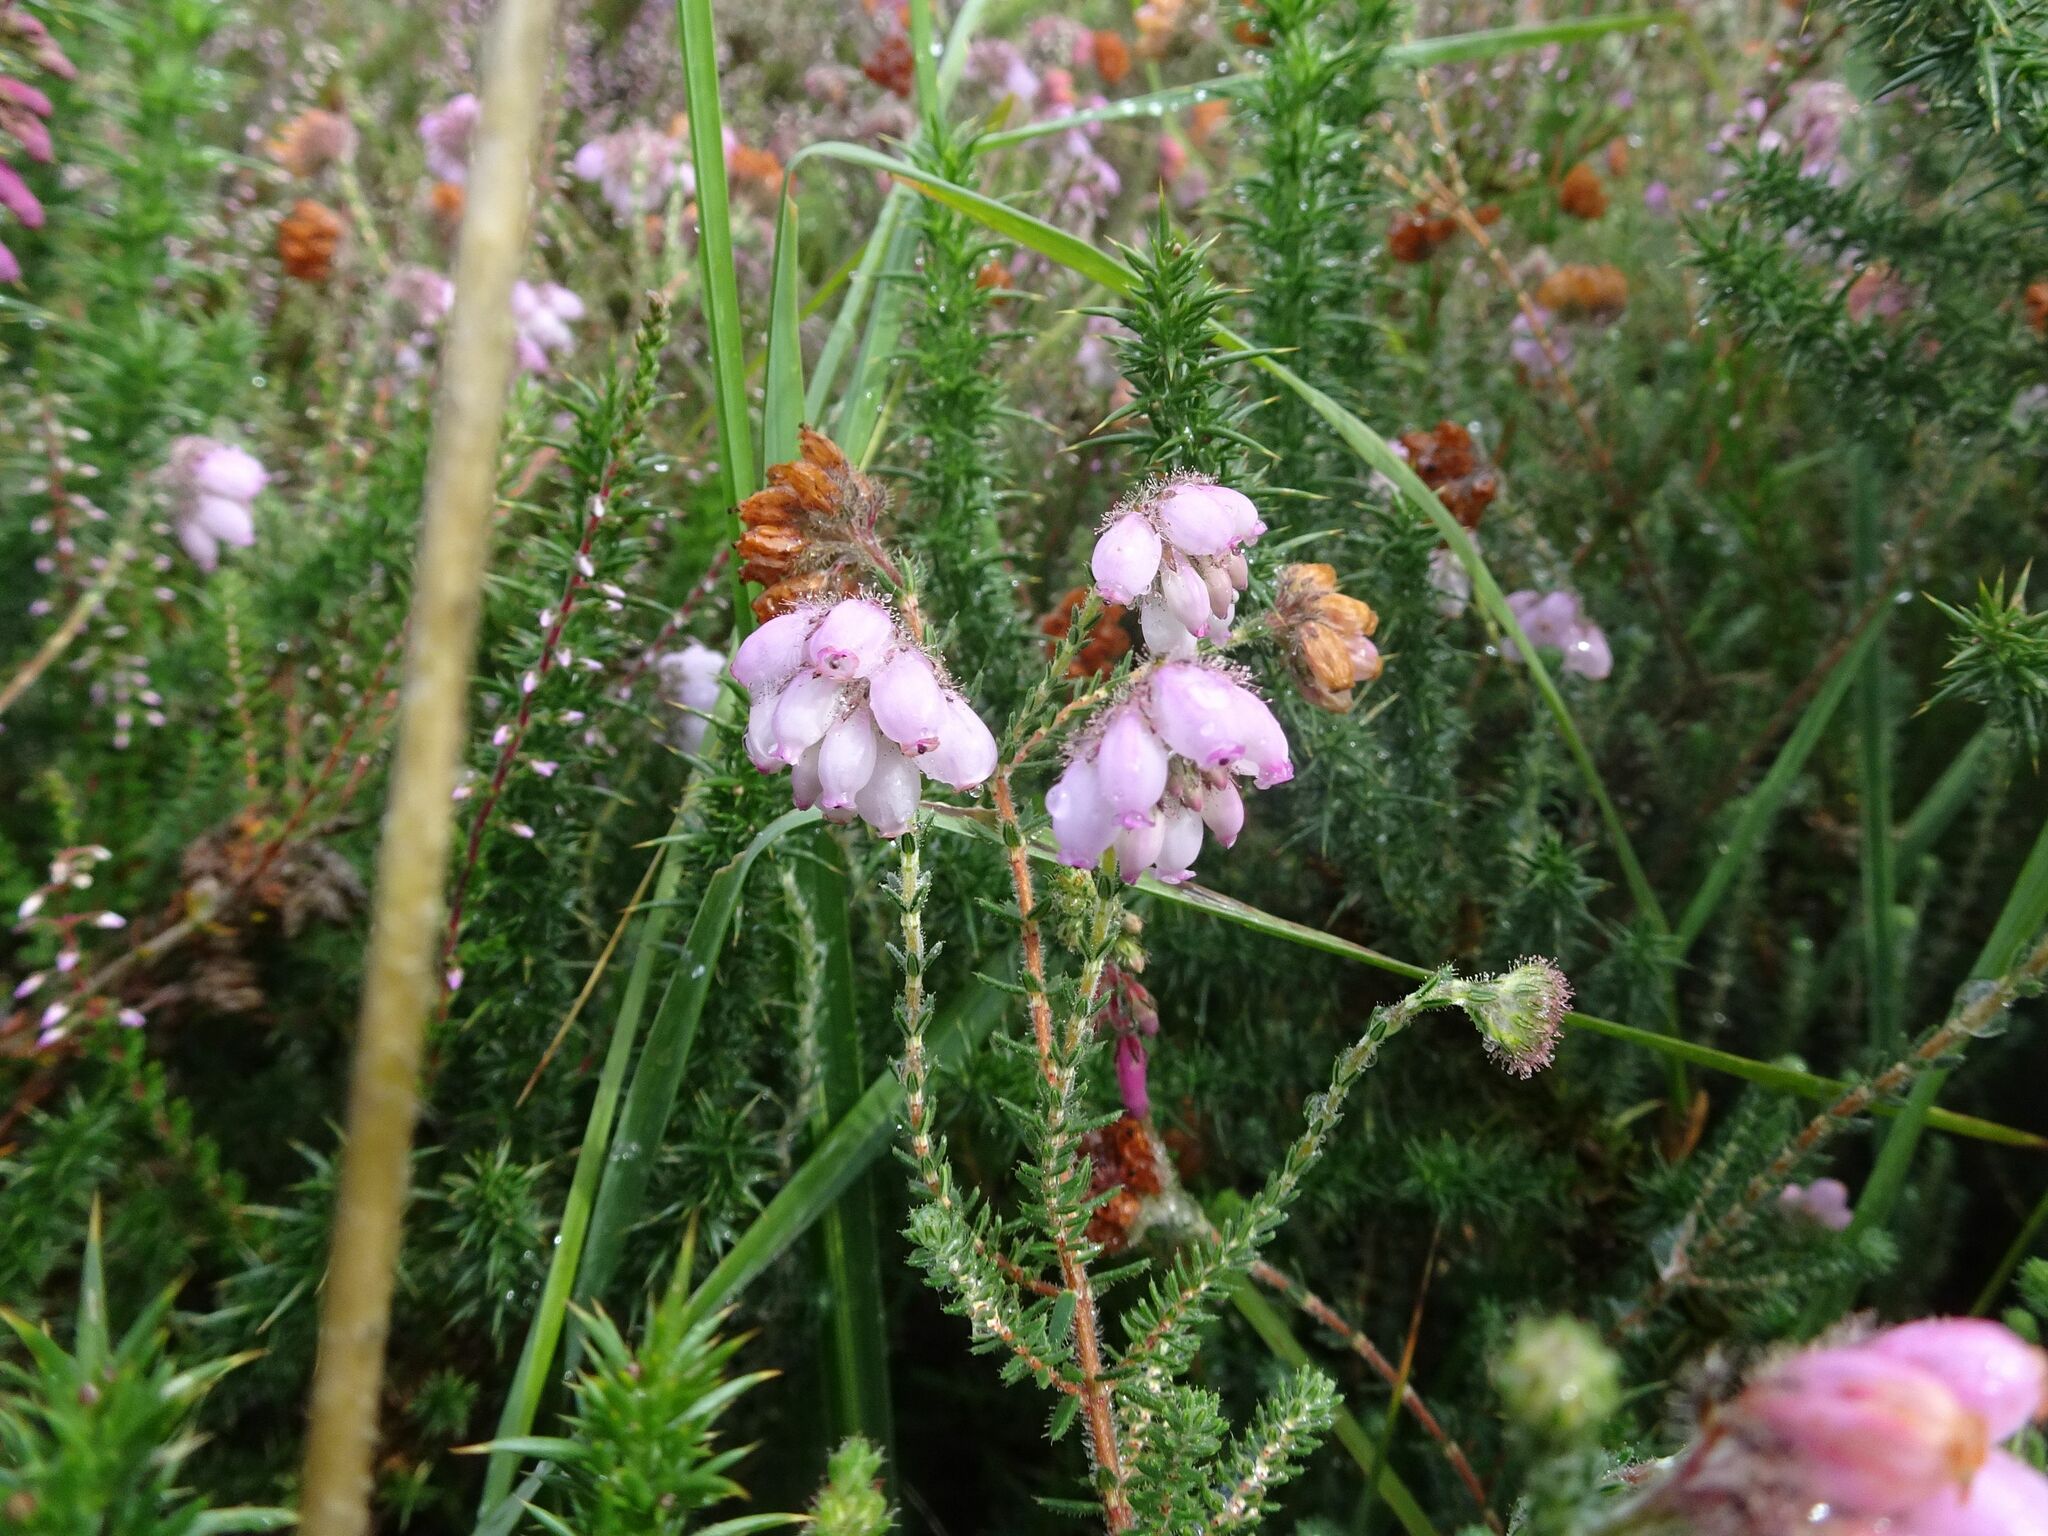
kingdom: Plantae
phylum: Tracheophyta
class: Magnoliopsida
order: Ericales
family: Ericaceae
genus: Erica
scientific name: Erica tetralix
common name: Cross-leaved heath
